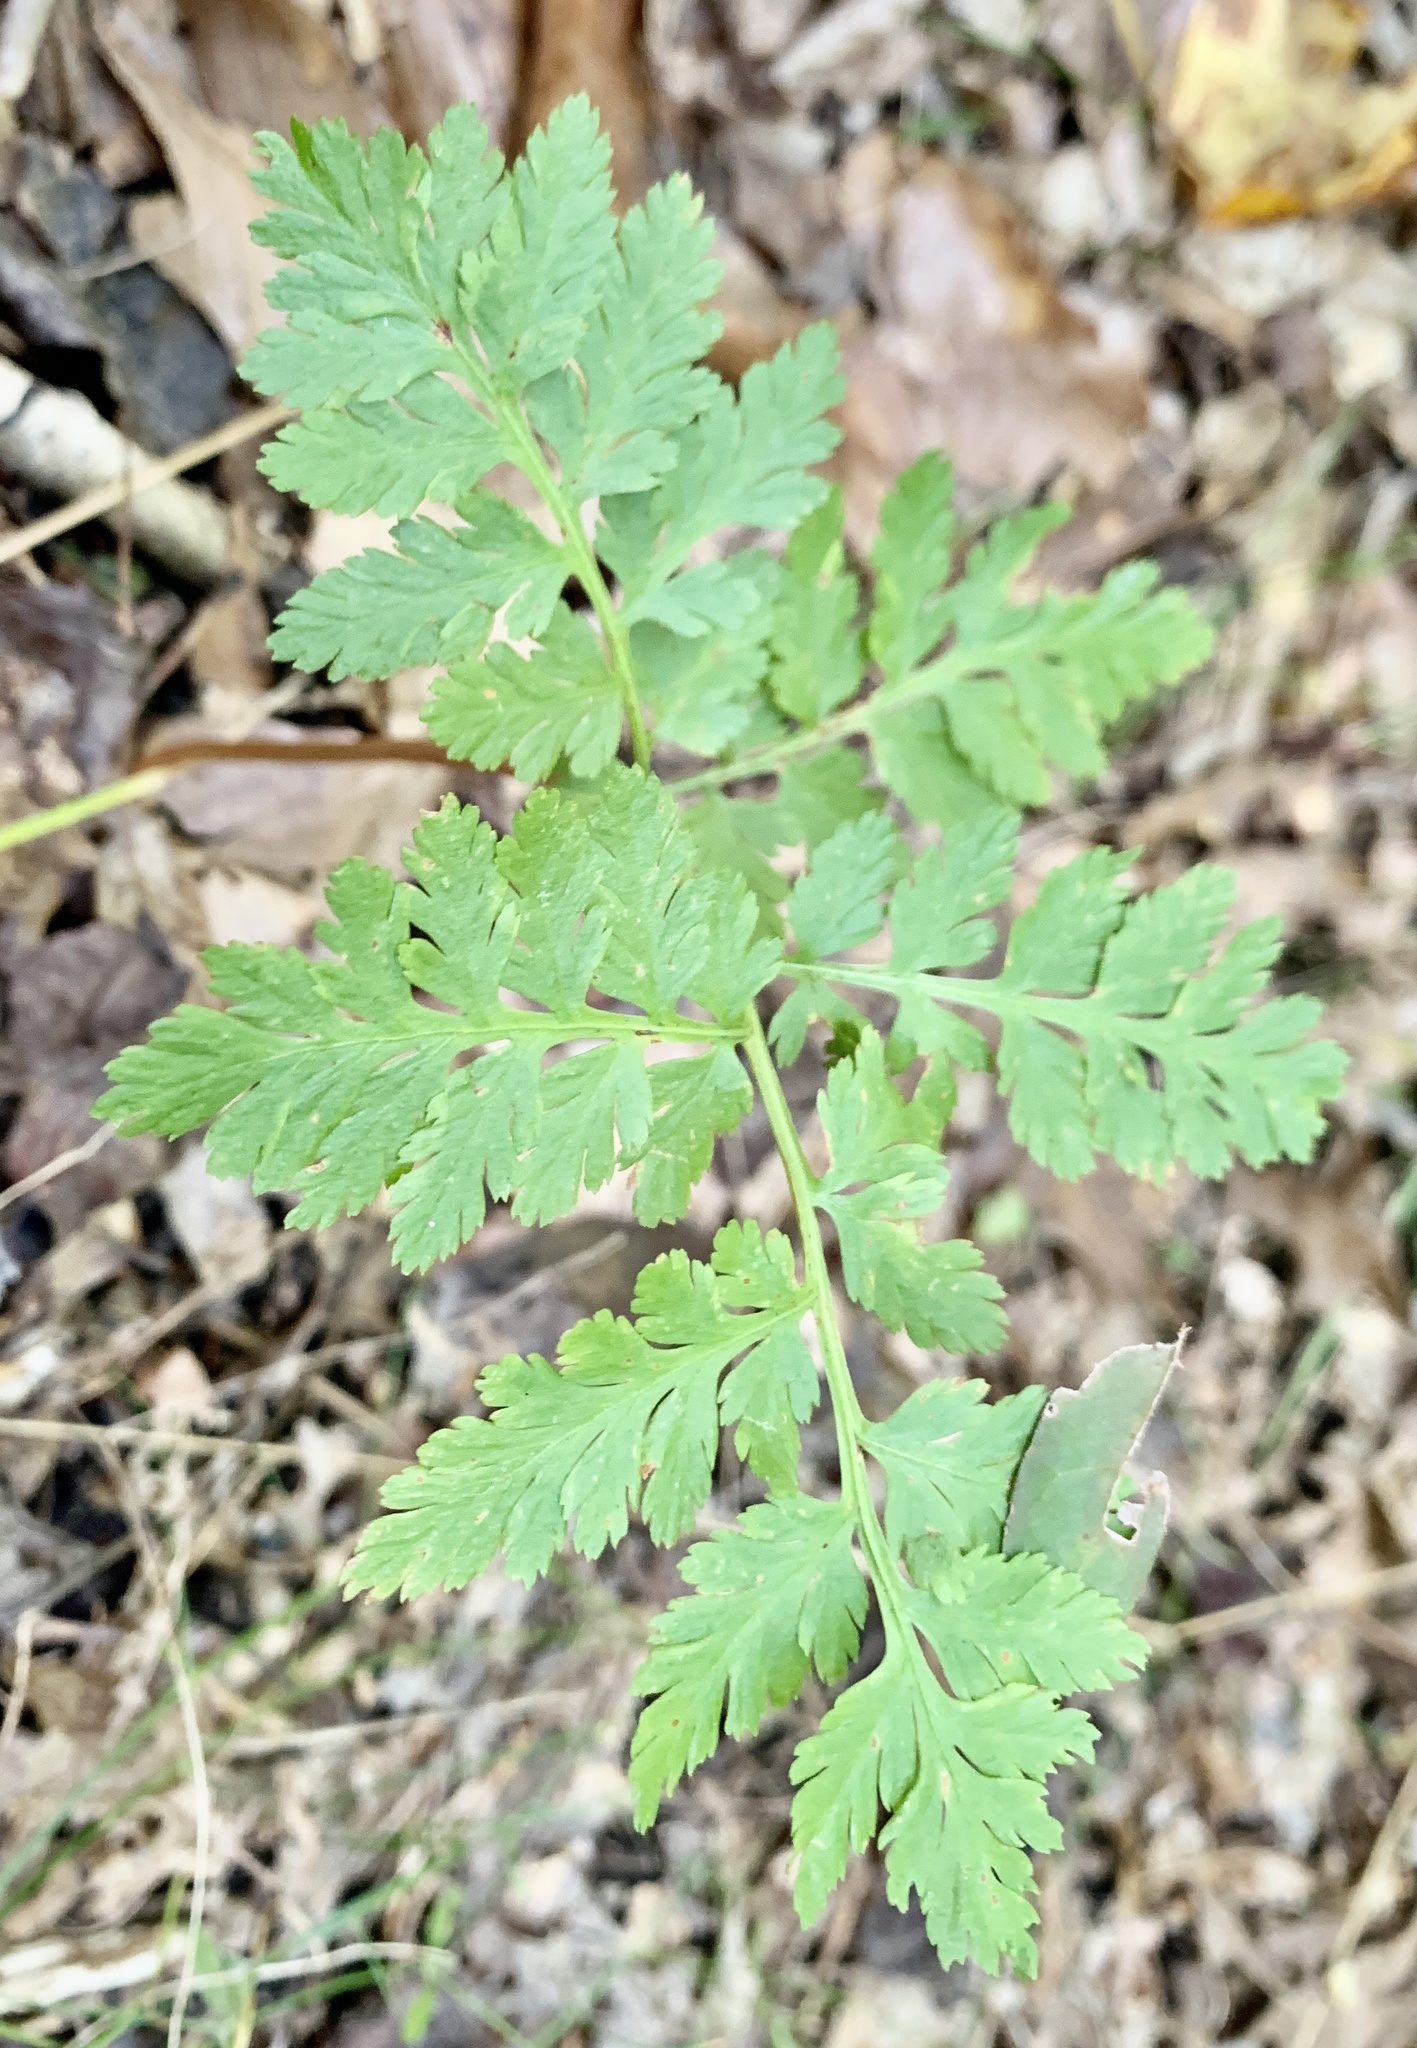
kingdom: Plantae
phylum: Tracheophyta
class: Polypodiopsida
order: Ophioglossales
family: Ophioglossaceae
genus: Botrypus
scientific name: Botrypus virginianus
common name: Common grapefern
